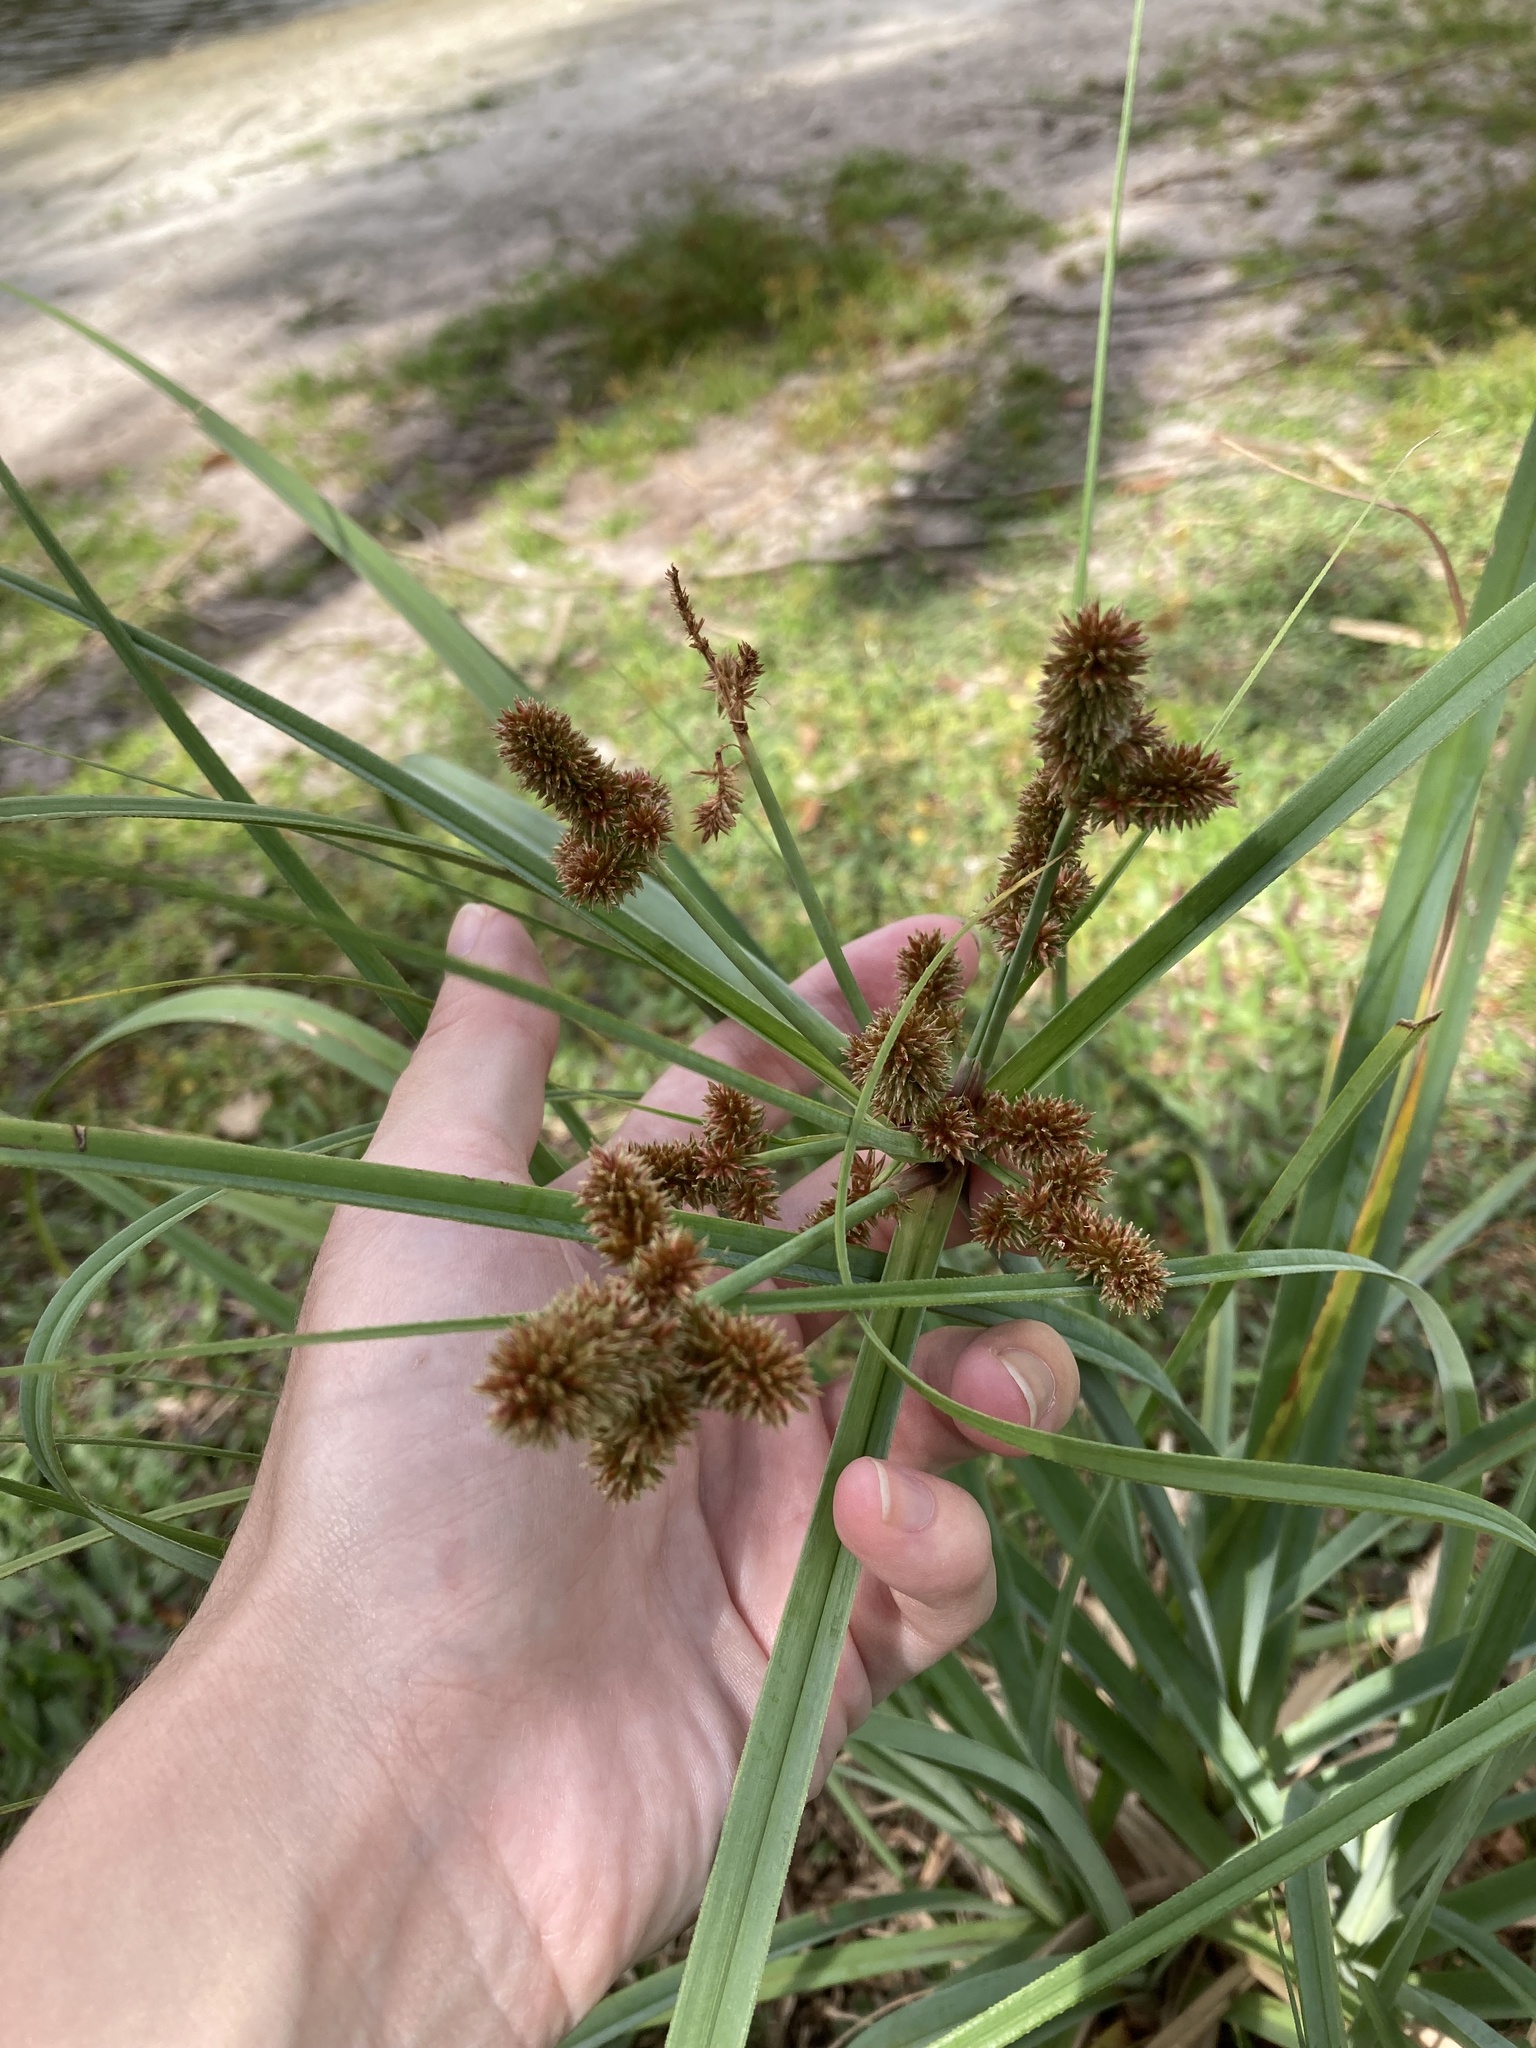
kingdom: Plantae
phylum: Tracheophyta
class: Liliopsida
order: Poales
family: Cyperaceae
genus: Cyperus
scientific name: Cyperus ligularis
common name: Swamp flat sedge
